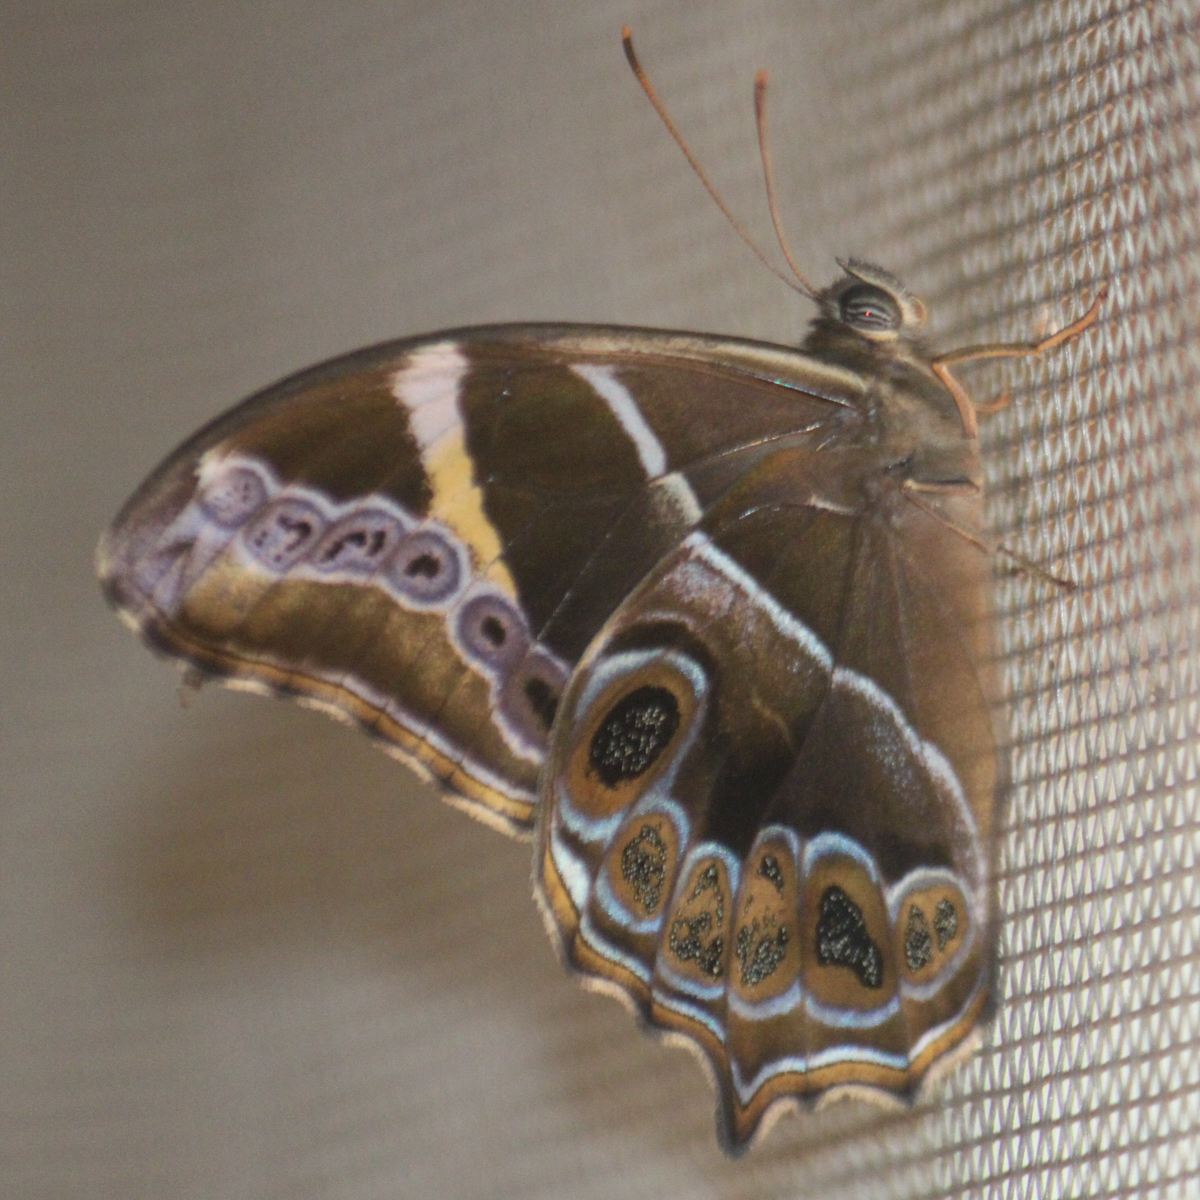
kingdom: Animalia
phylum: Arthropoda
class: Insecta
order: Lepidoptera
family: Nymphalidae
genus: Lethe
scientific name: Lethe europa
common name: Bamboo treebrown
